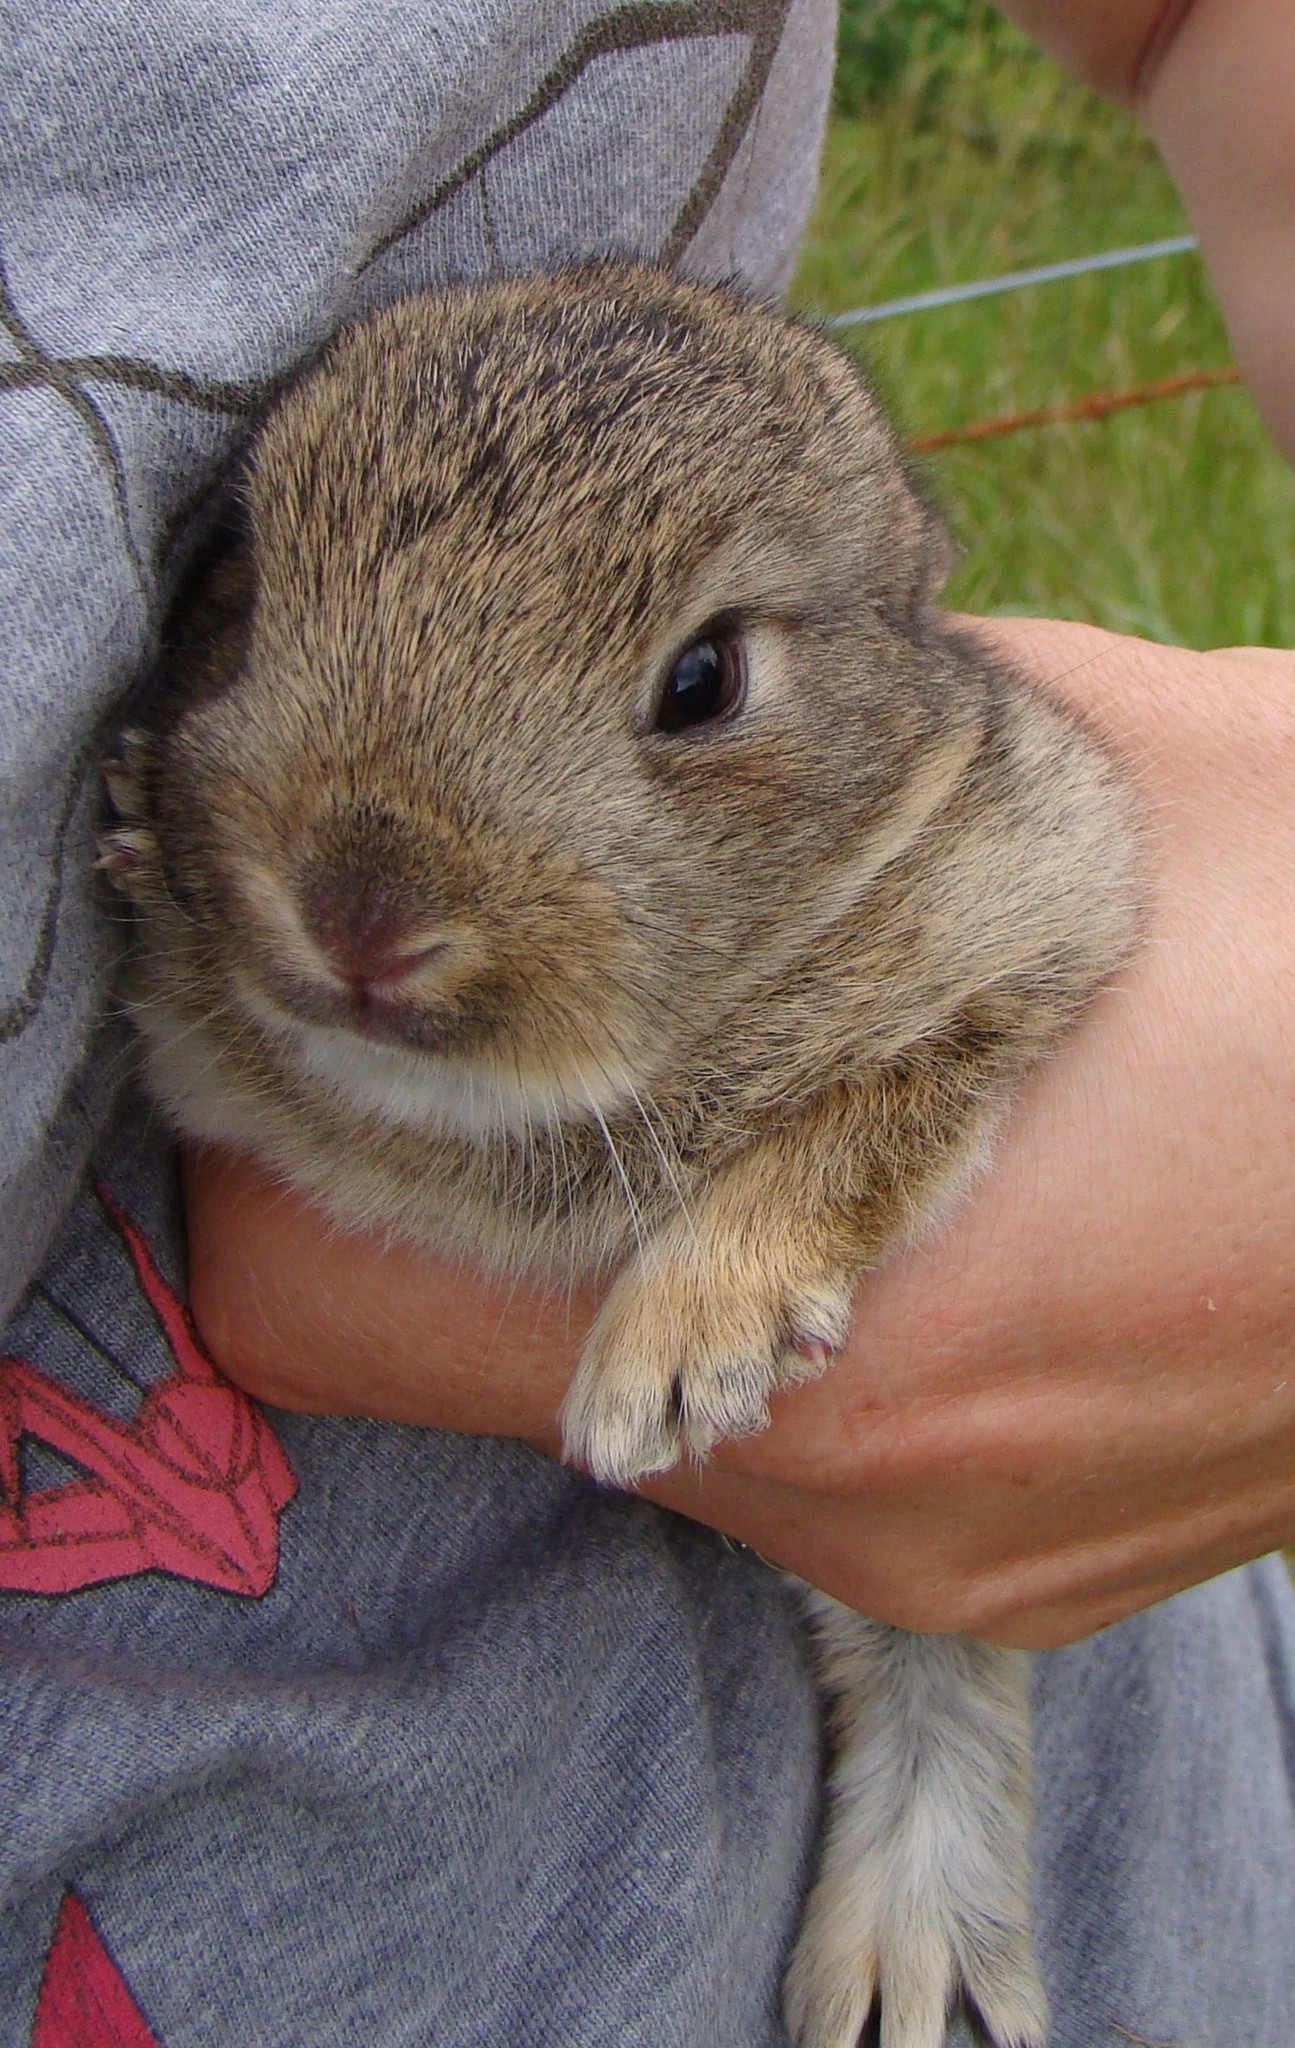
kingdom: Animalia
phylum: Chordata
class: Mammalia
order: Lagomorpha
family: Leporidae
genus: Oryctolagus
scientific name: Oryctolagus cuniculus
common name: European rabbit
